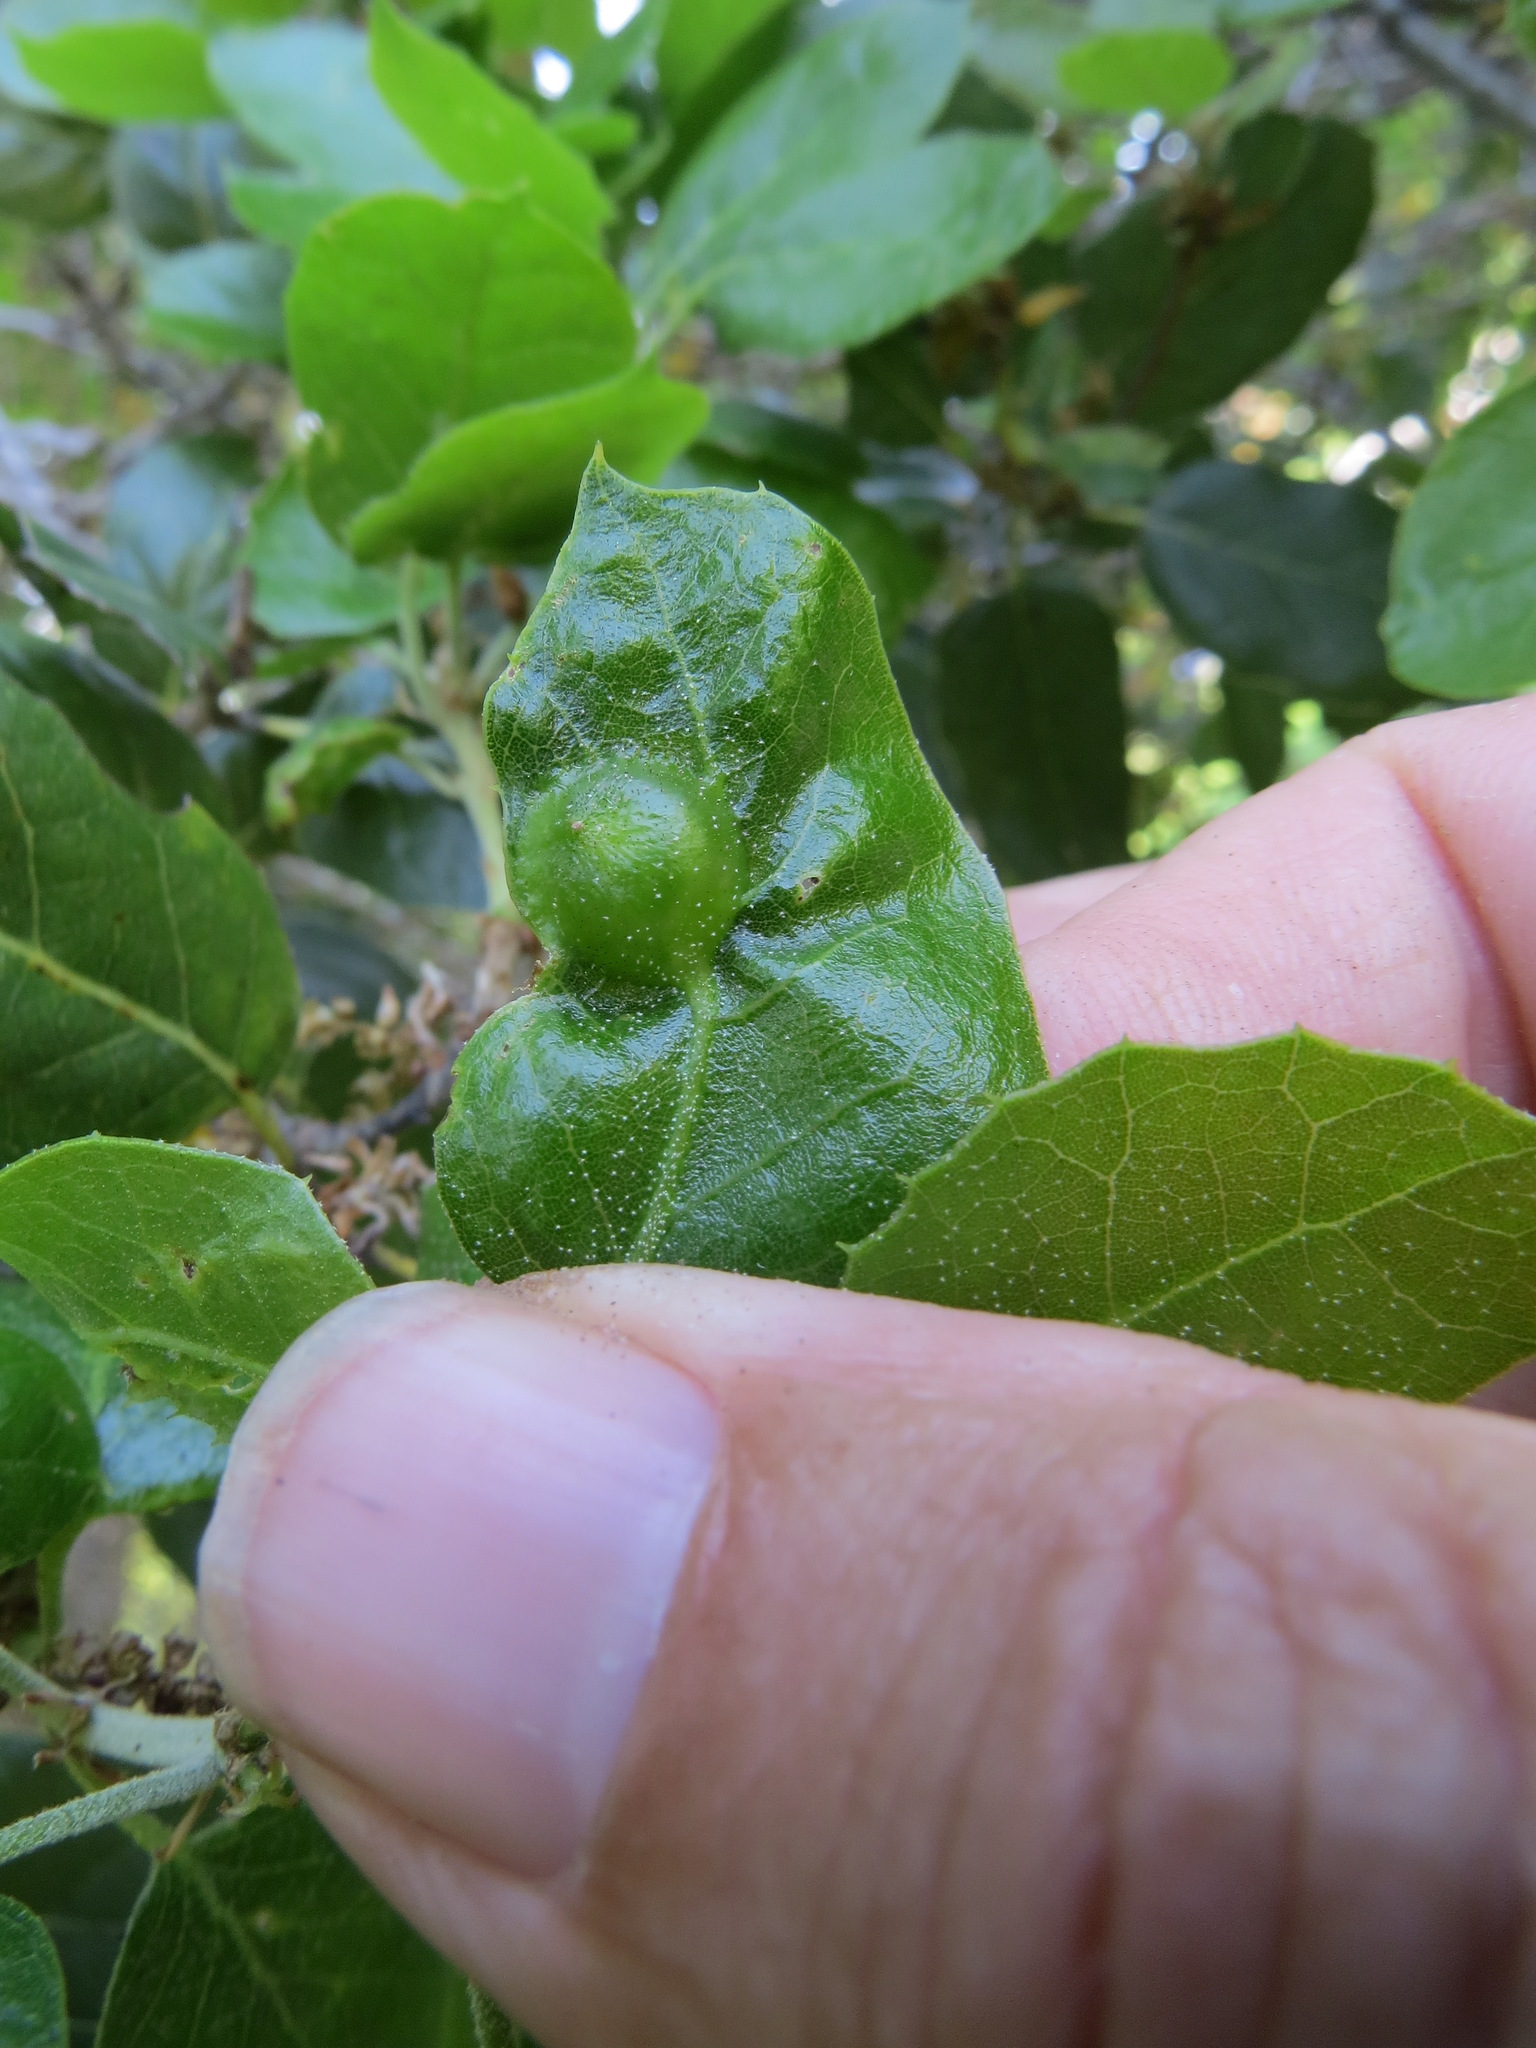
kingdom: Animalia
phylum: Arthropoda
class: Insecta
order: Hymenoptera
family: Cynipidae
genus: Callirhytis
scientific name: Callirhytis
